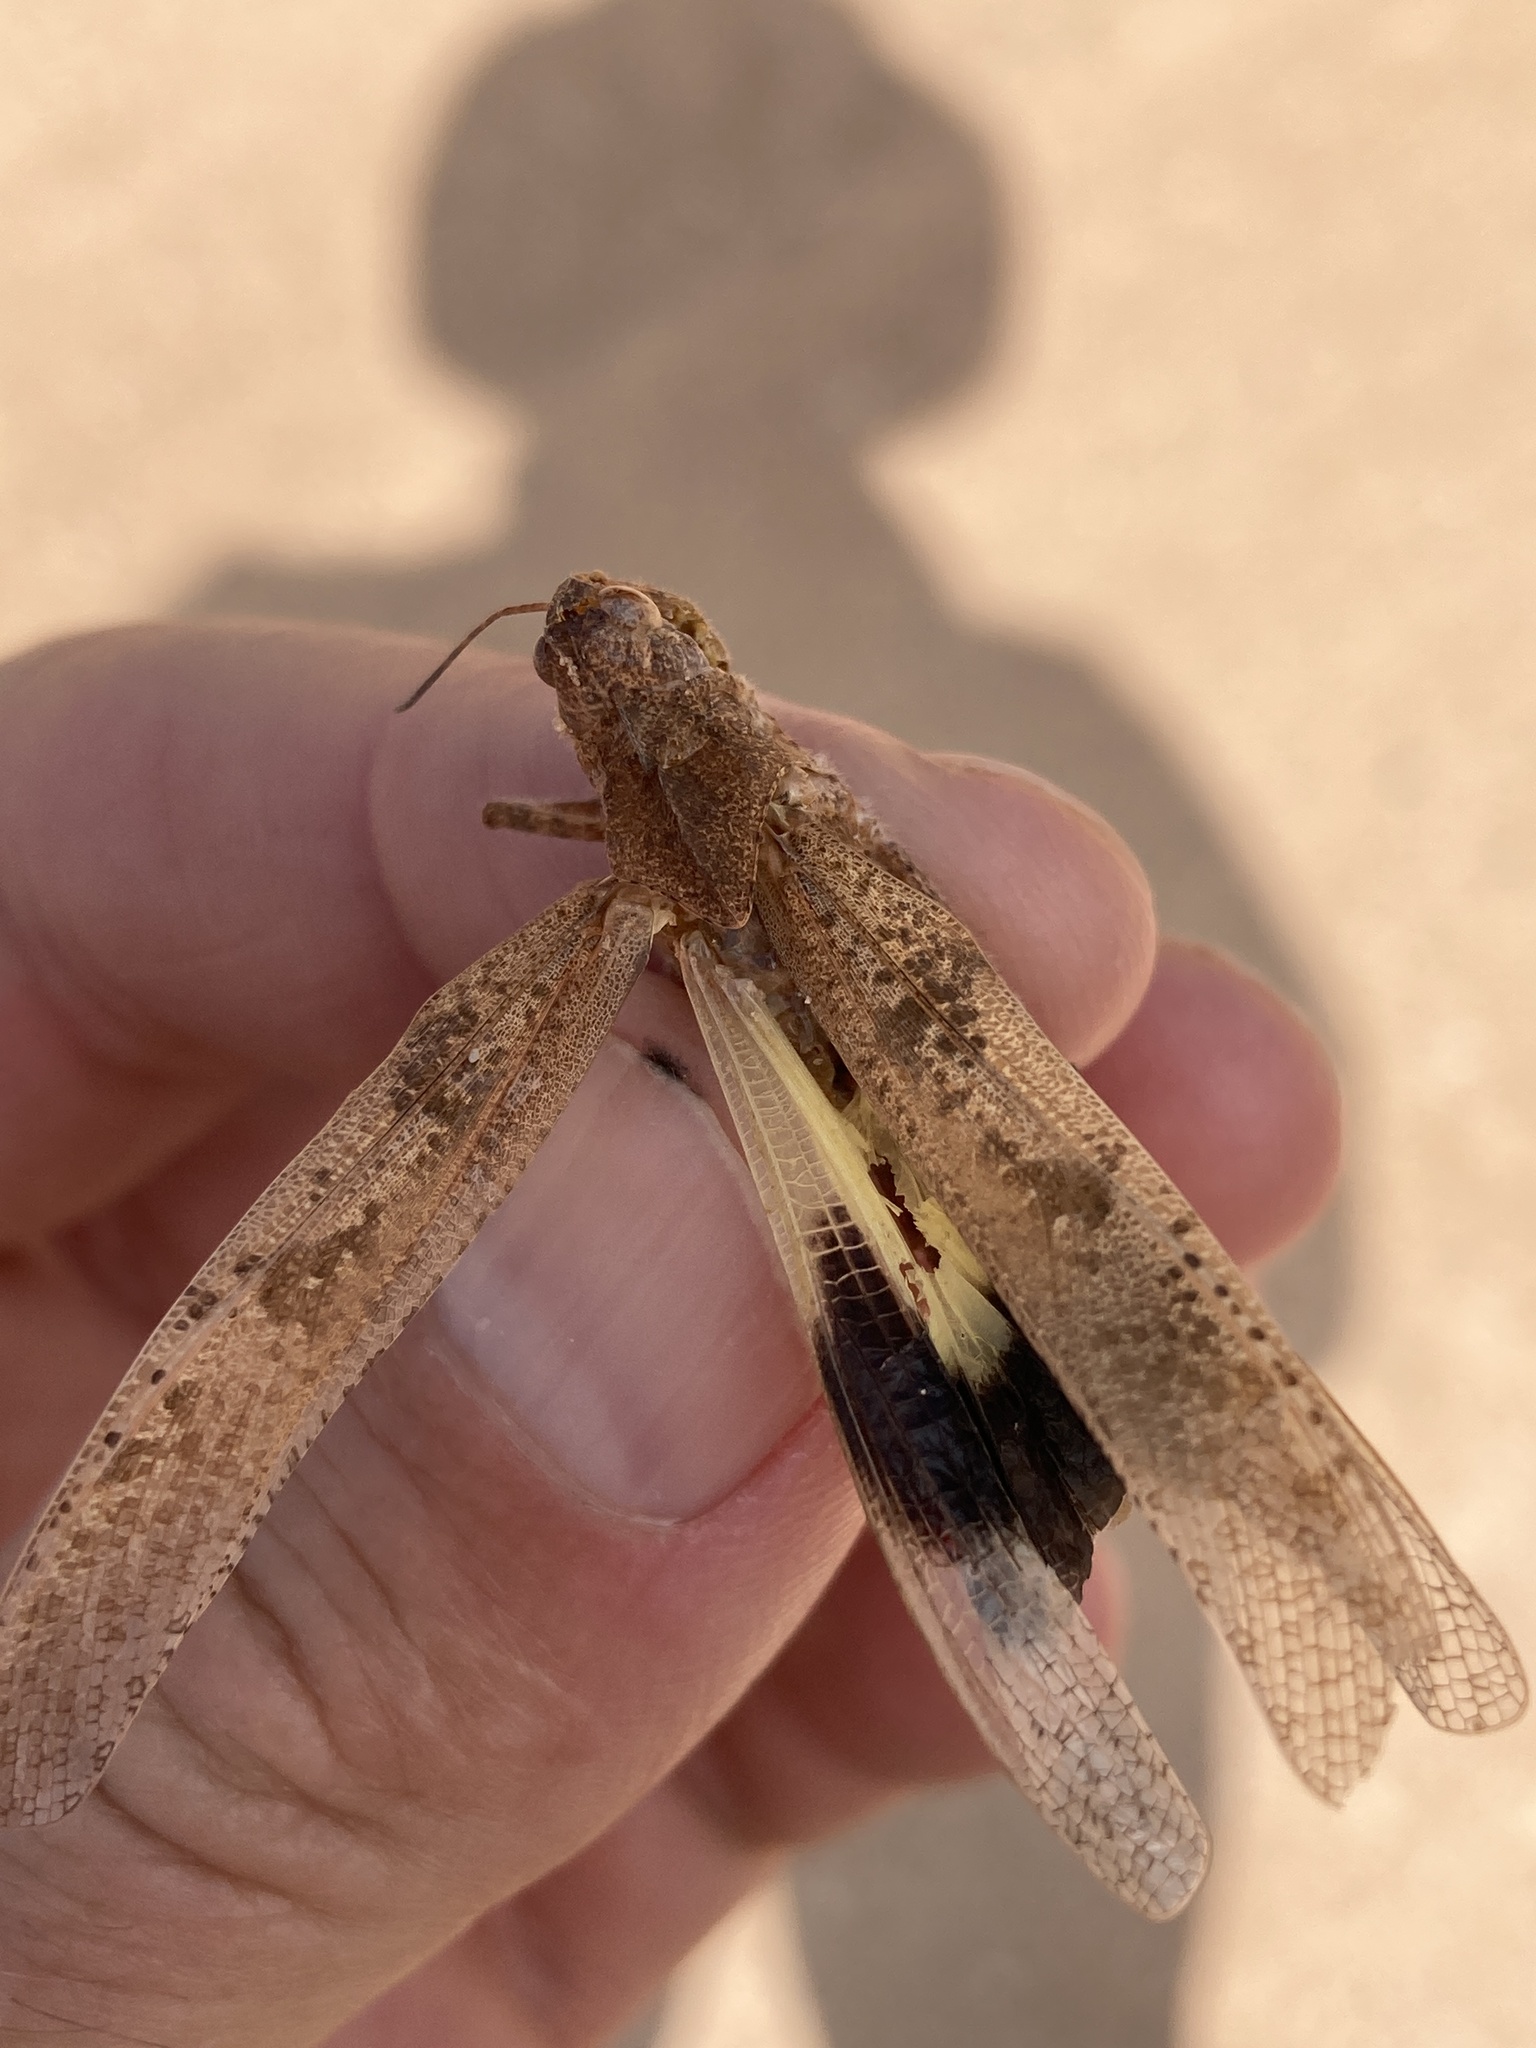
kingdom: Animalia
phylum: Arthropoda
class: Insecta
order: Orthoptera
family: Acrididae
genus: Spharagemon
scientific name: Spharagemon cristatum
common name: Ridgeback sand grasshopper
